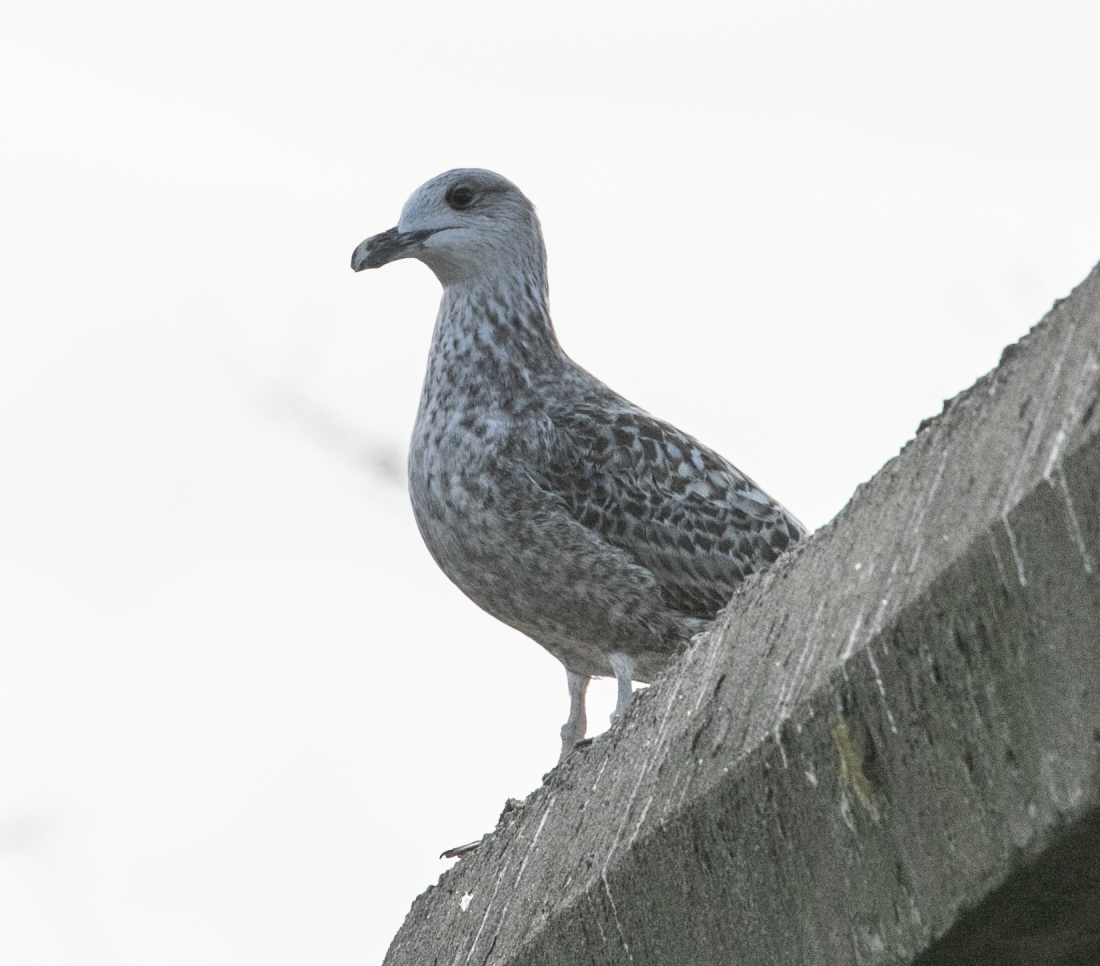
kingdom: Animalia
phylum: Chordata
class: Aves
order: Charadriiformes
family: Laridae
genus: Larus
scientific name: Larus michahellis
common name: Yellow-legged gull
